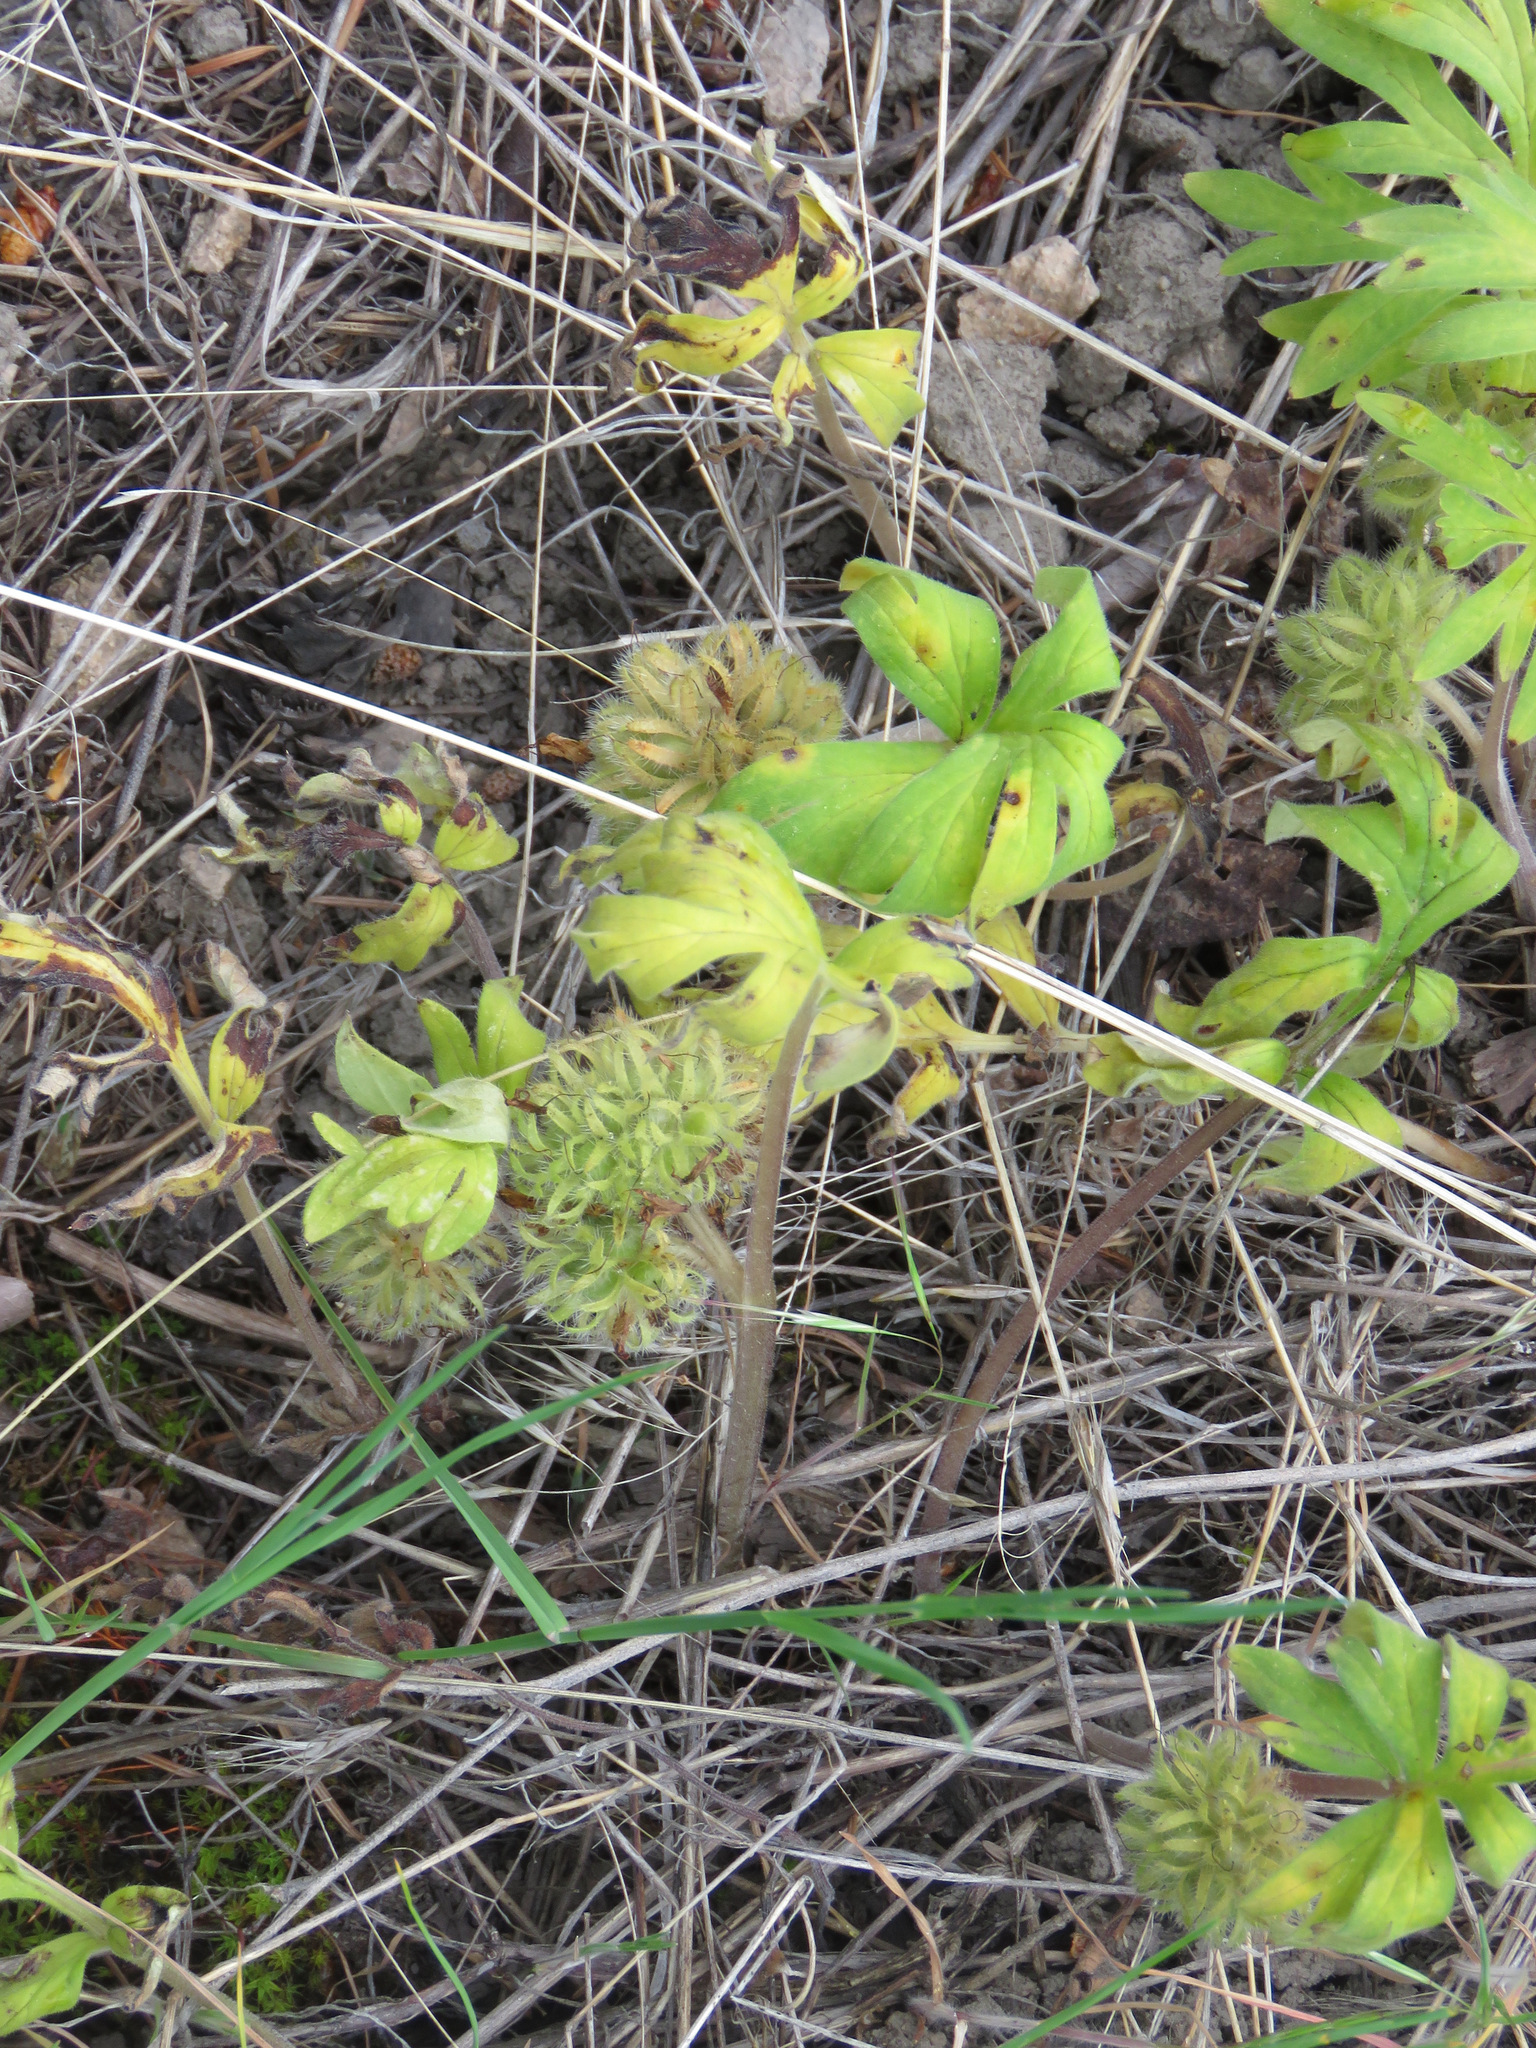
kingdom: Plantae
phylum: Tracheophyta
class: Magnoliopsida
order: Boraginales
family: Hydrophyllaceae
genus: Hydrophyllum
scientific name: Hydrophyllum capitatum
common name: Woollen-breeches
